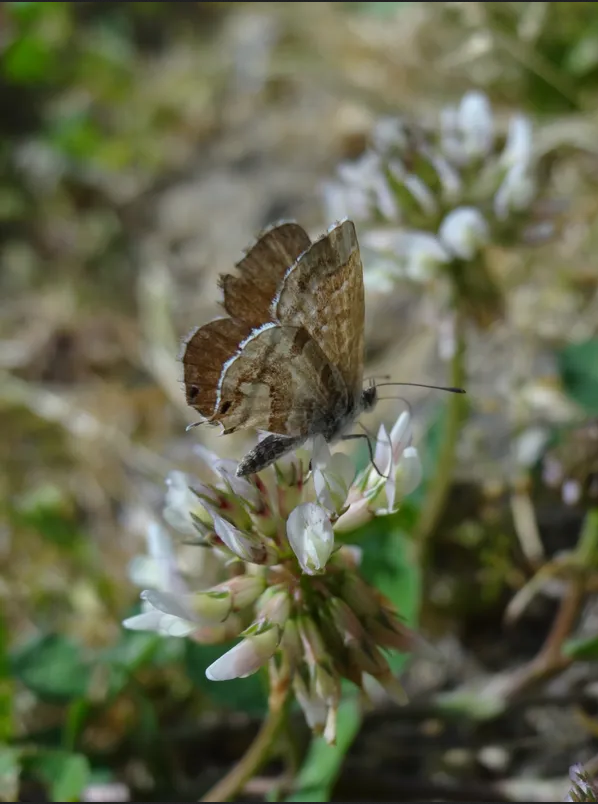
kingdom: Animalia
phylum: Arthropoda
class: Insecta
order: Lepidoptera
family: Lycaenidae
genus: Cacyreus
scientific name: Cacyreus marshalli
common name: Geranium bronze
